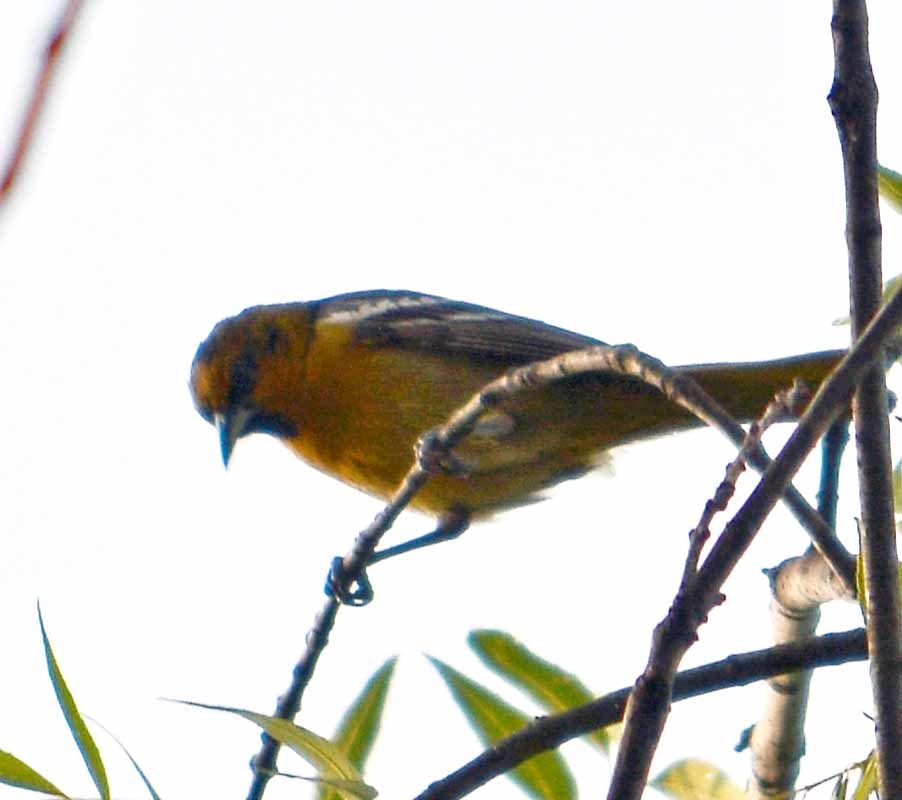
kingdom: Animalia
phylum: Chordata
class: Aves
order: Passeriformes
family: Icteridae
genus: Icterus
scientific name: Icterus abeillei
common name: Black-backed oriole
